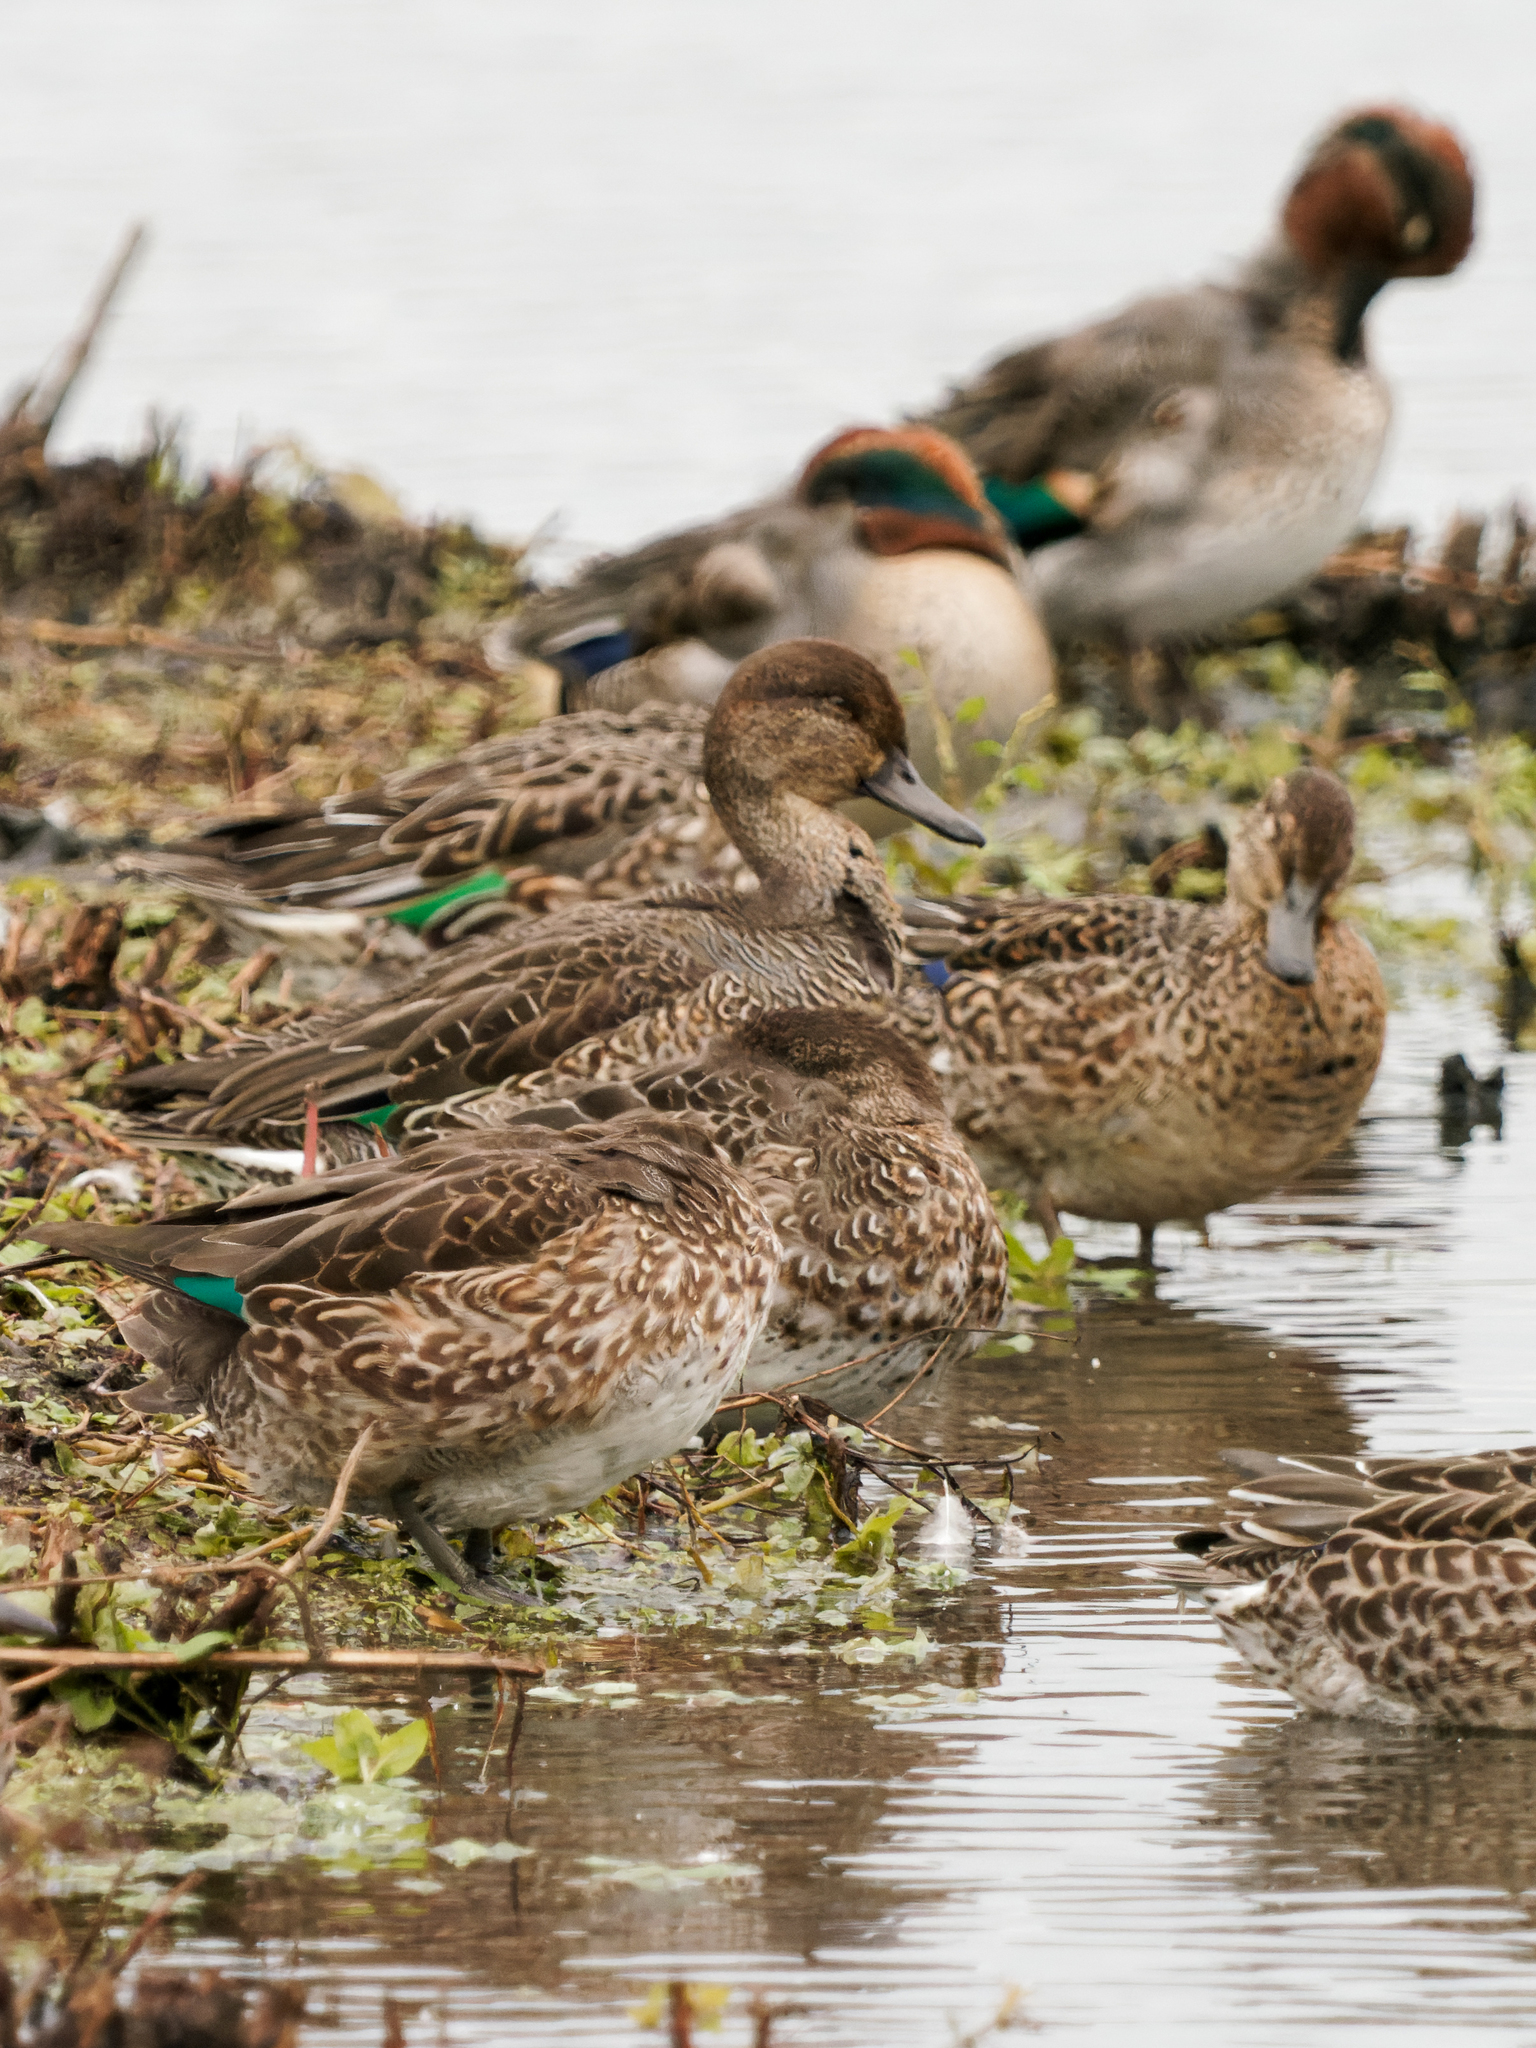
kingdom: Animalia
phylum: Chordata
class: Aves
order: Anseriformes
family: Anatidae
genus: Anas
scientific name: Anas crecca
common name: Eurasian teal
